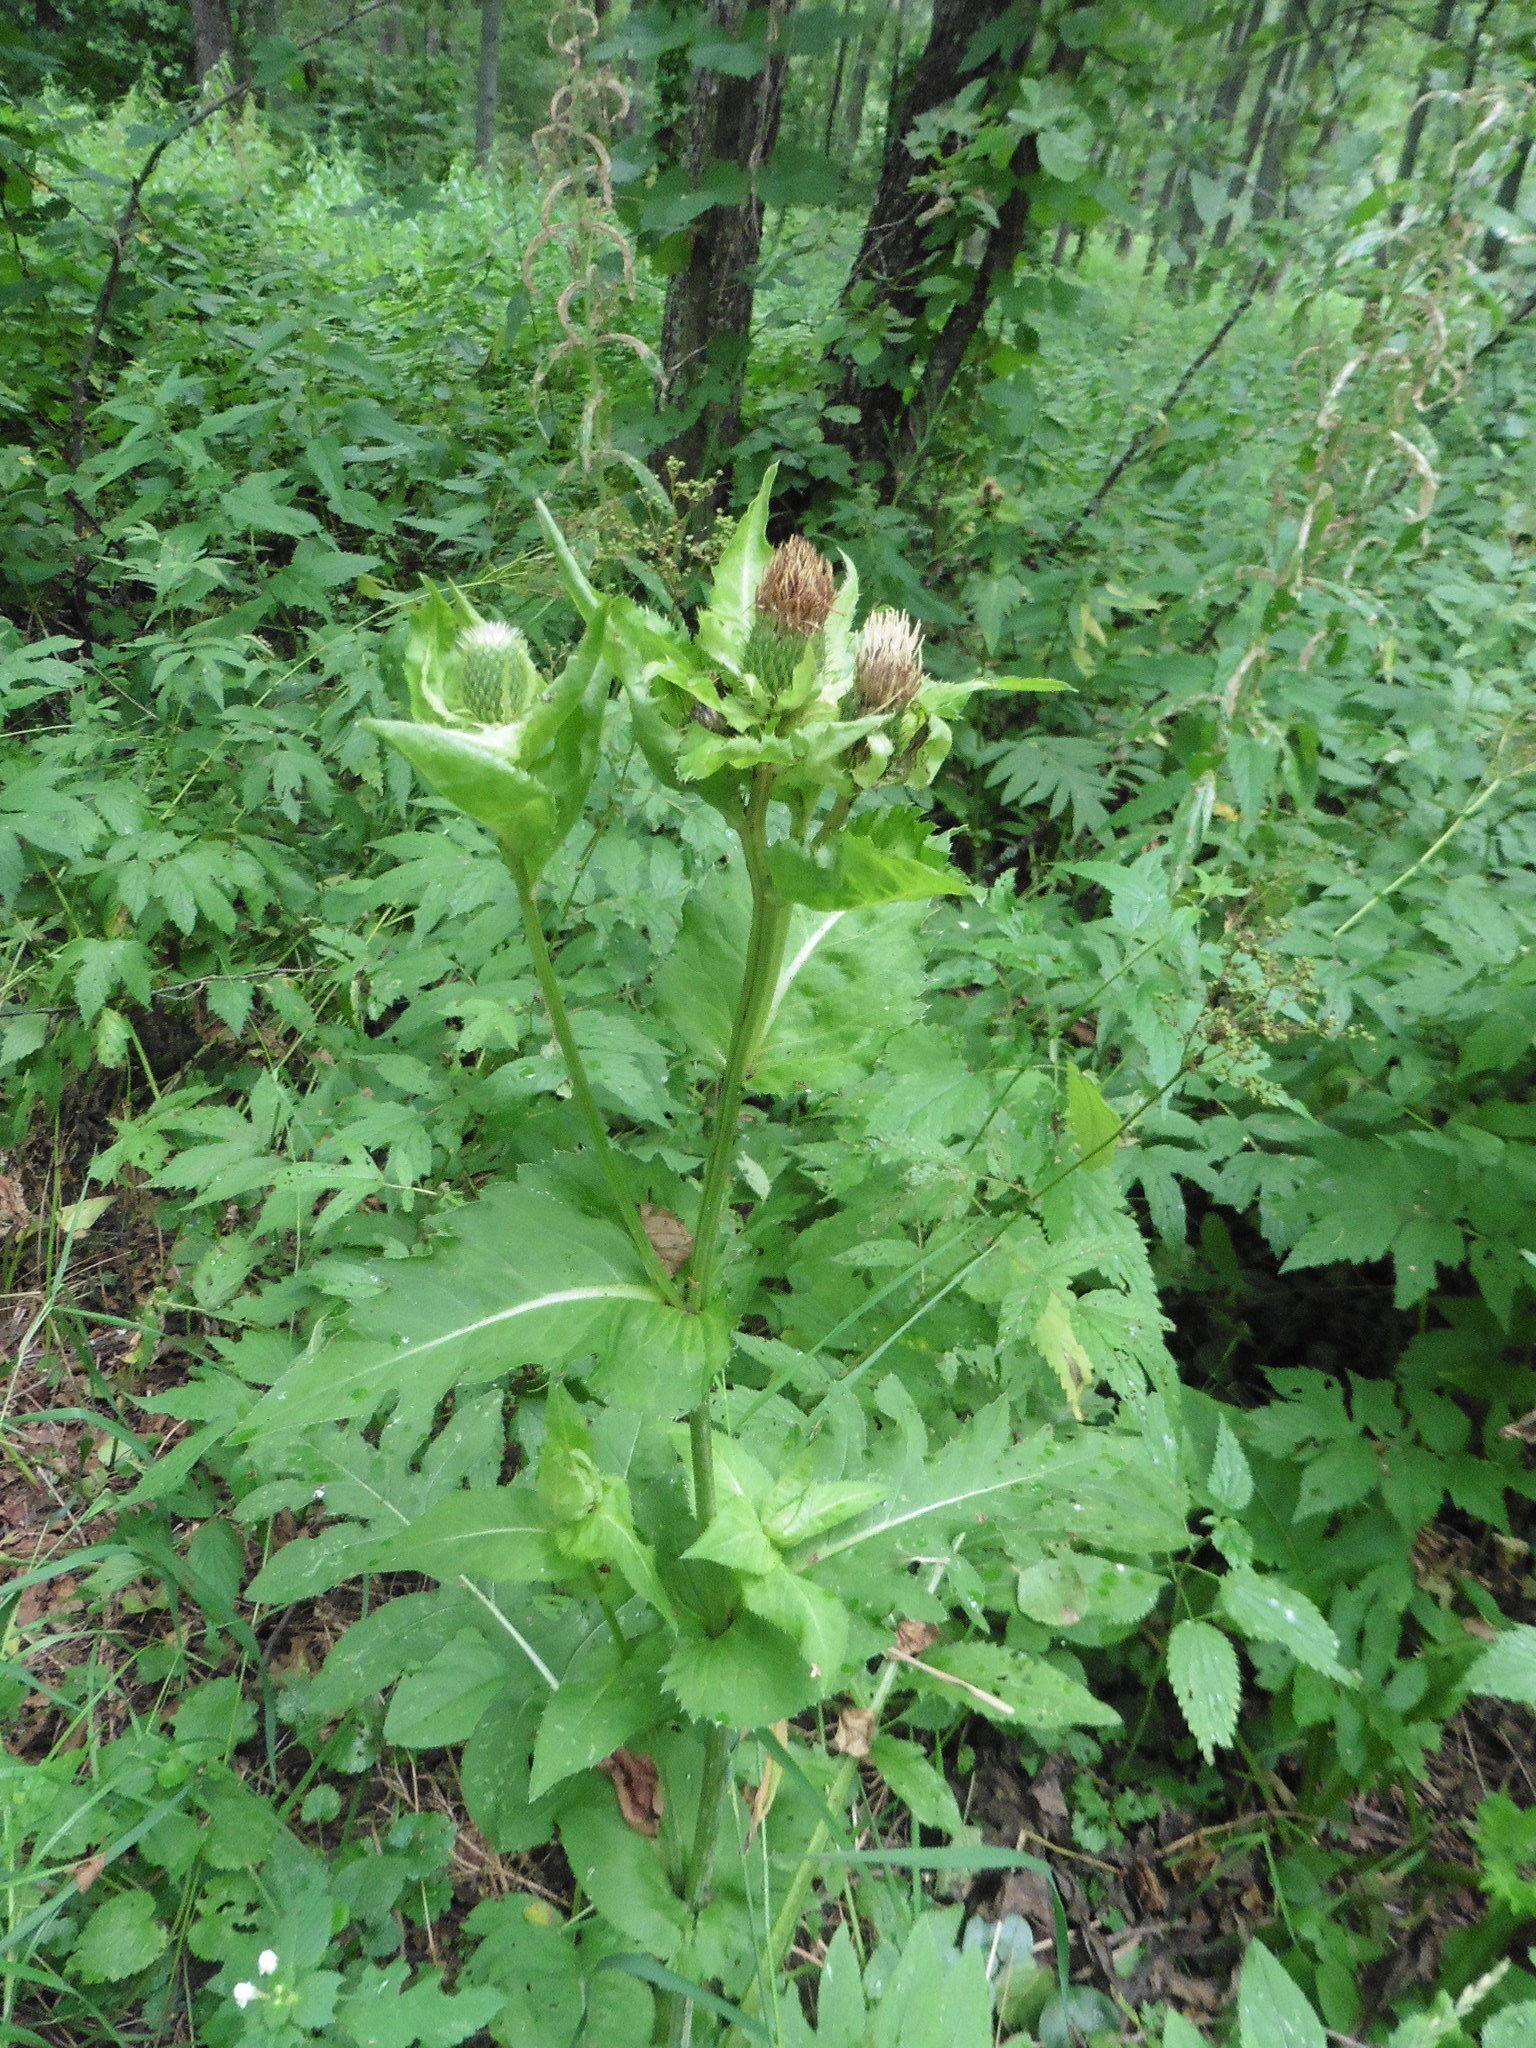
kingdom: Plantae
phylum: Tracheophyta
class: Magnoliopsida
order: Asterales
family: Asteraceae
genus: Cirsium
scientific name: Cirsium oleraceum
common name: Cabbage thistle
